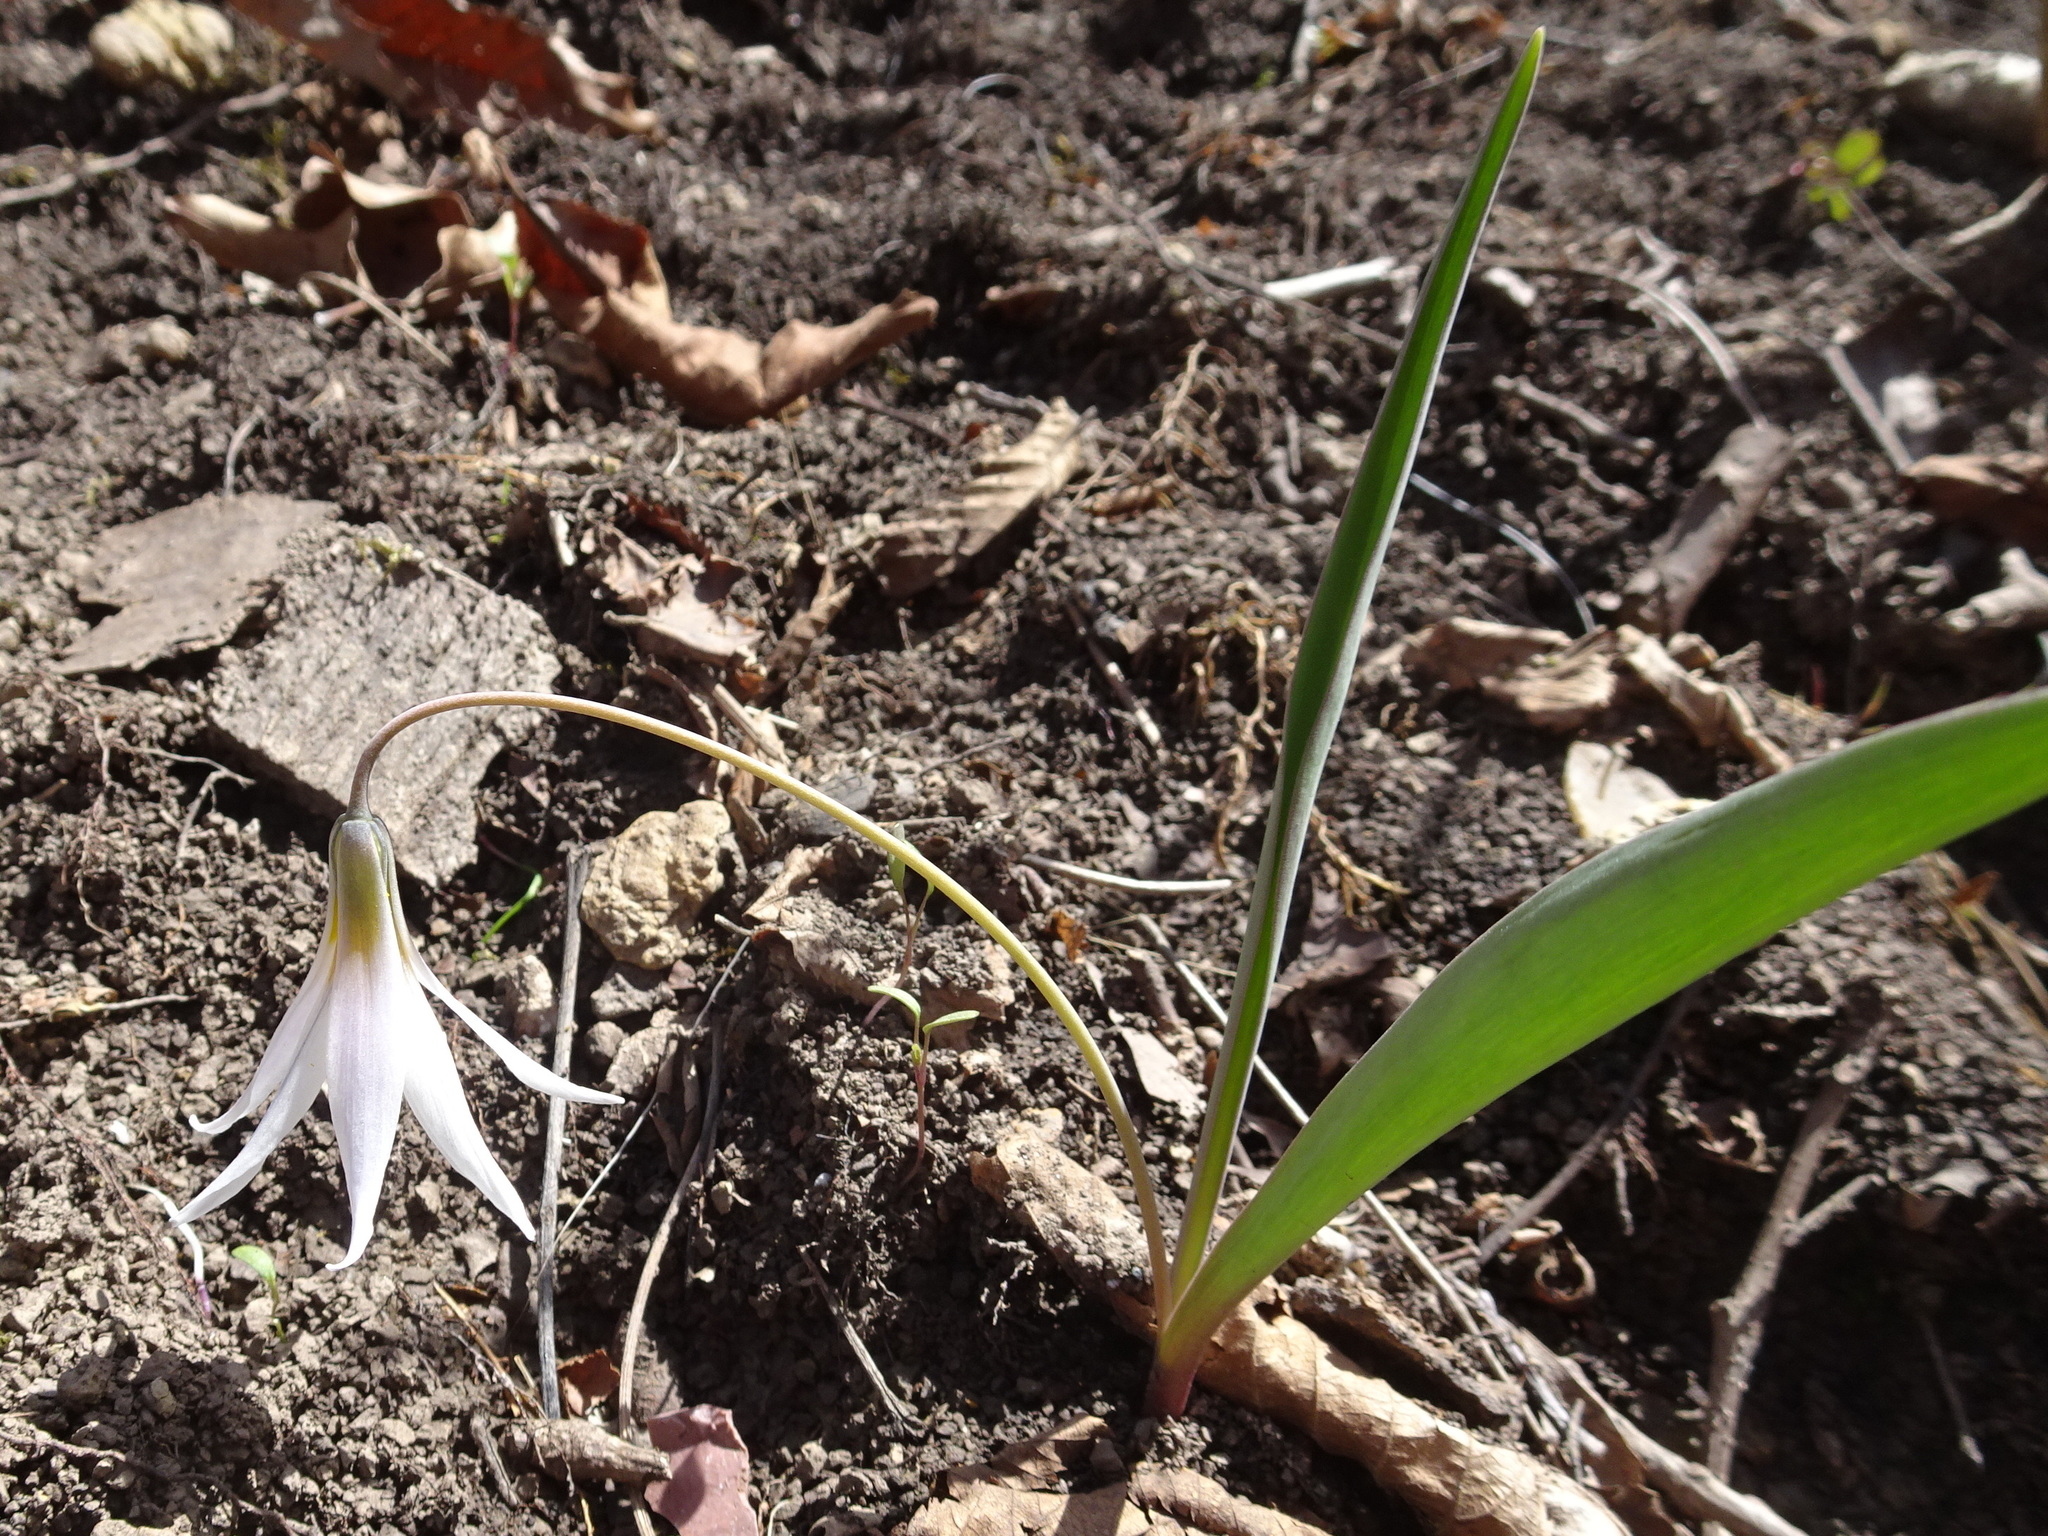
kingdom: Plantae
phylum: Tracheophyta
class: Liliopsida
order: Liliales
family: Liliaceae
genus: Erythronium
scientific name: Erythronium mesochoreum
